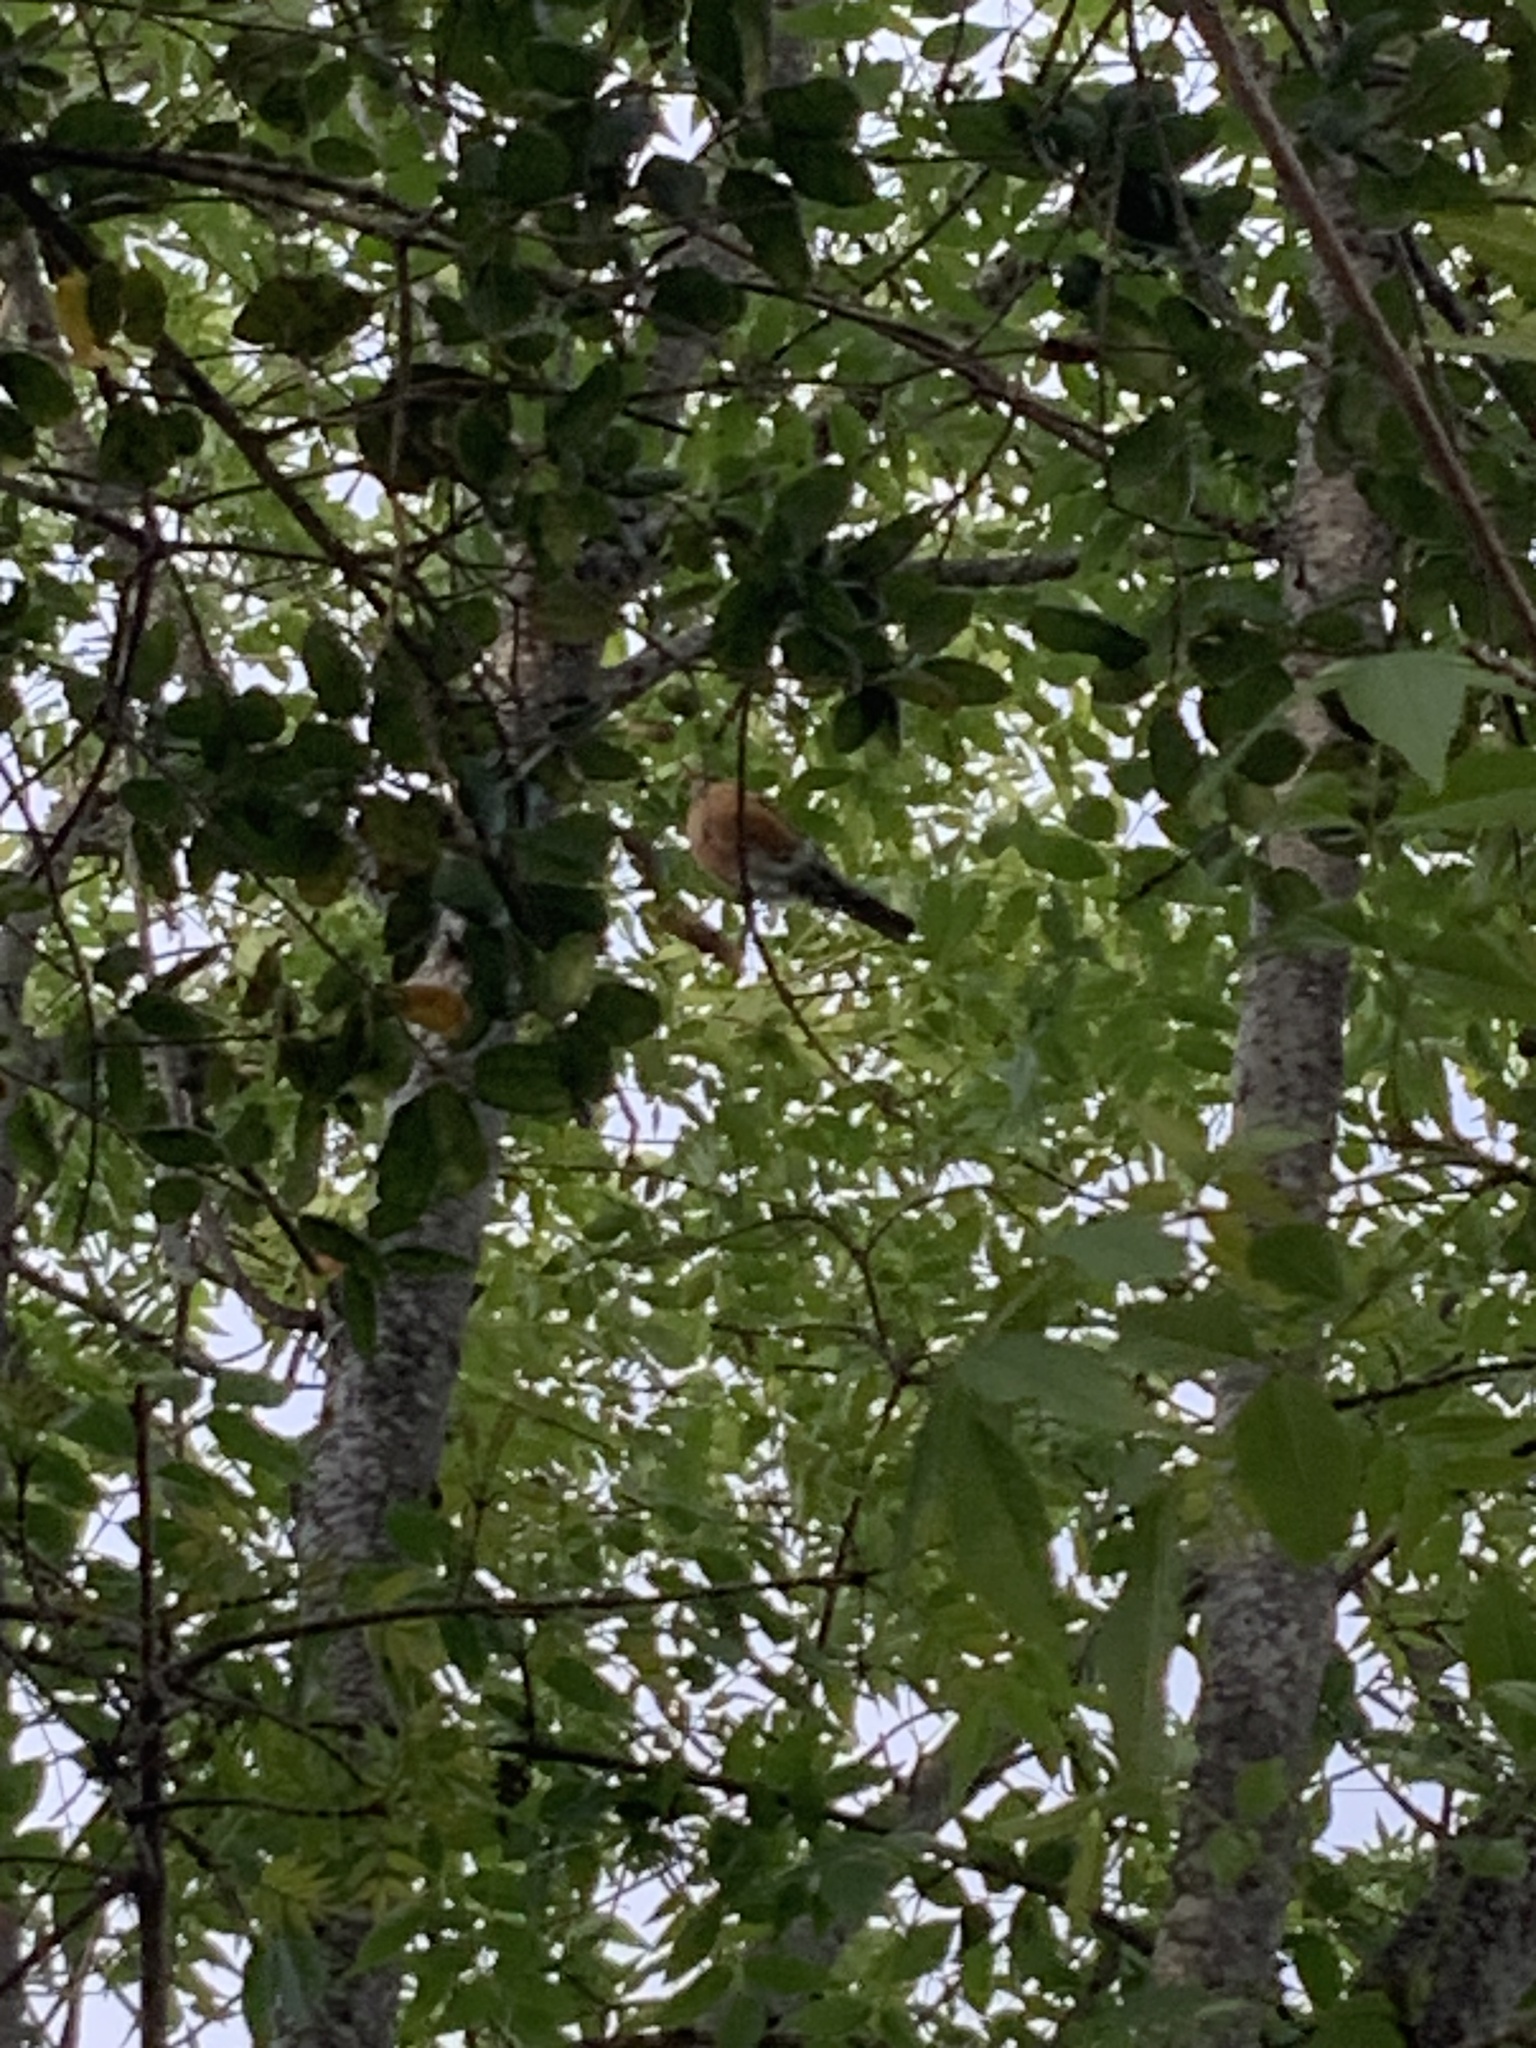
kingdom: Animalia
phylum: Chordata
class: Aves
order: Passeriformes
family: Turdidae
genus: Turdus
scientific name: Turdus migratorius
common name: American robin
